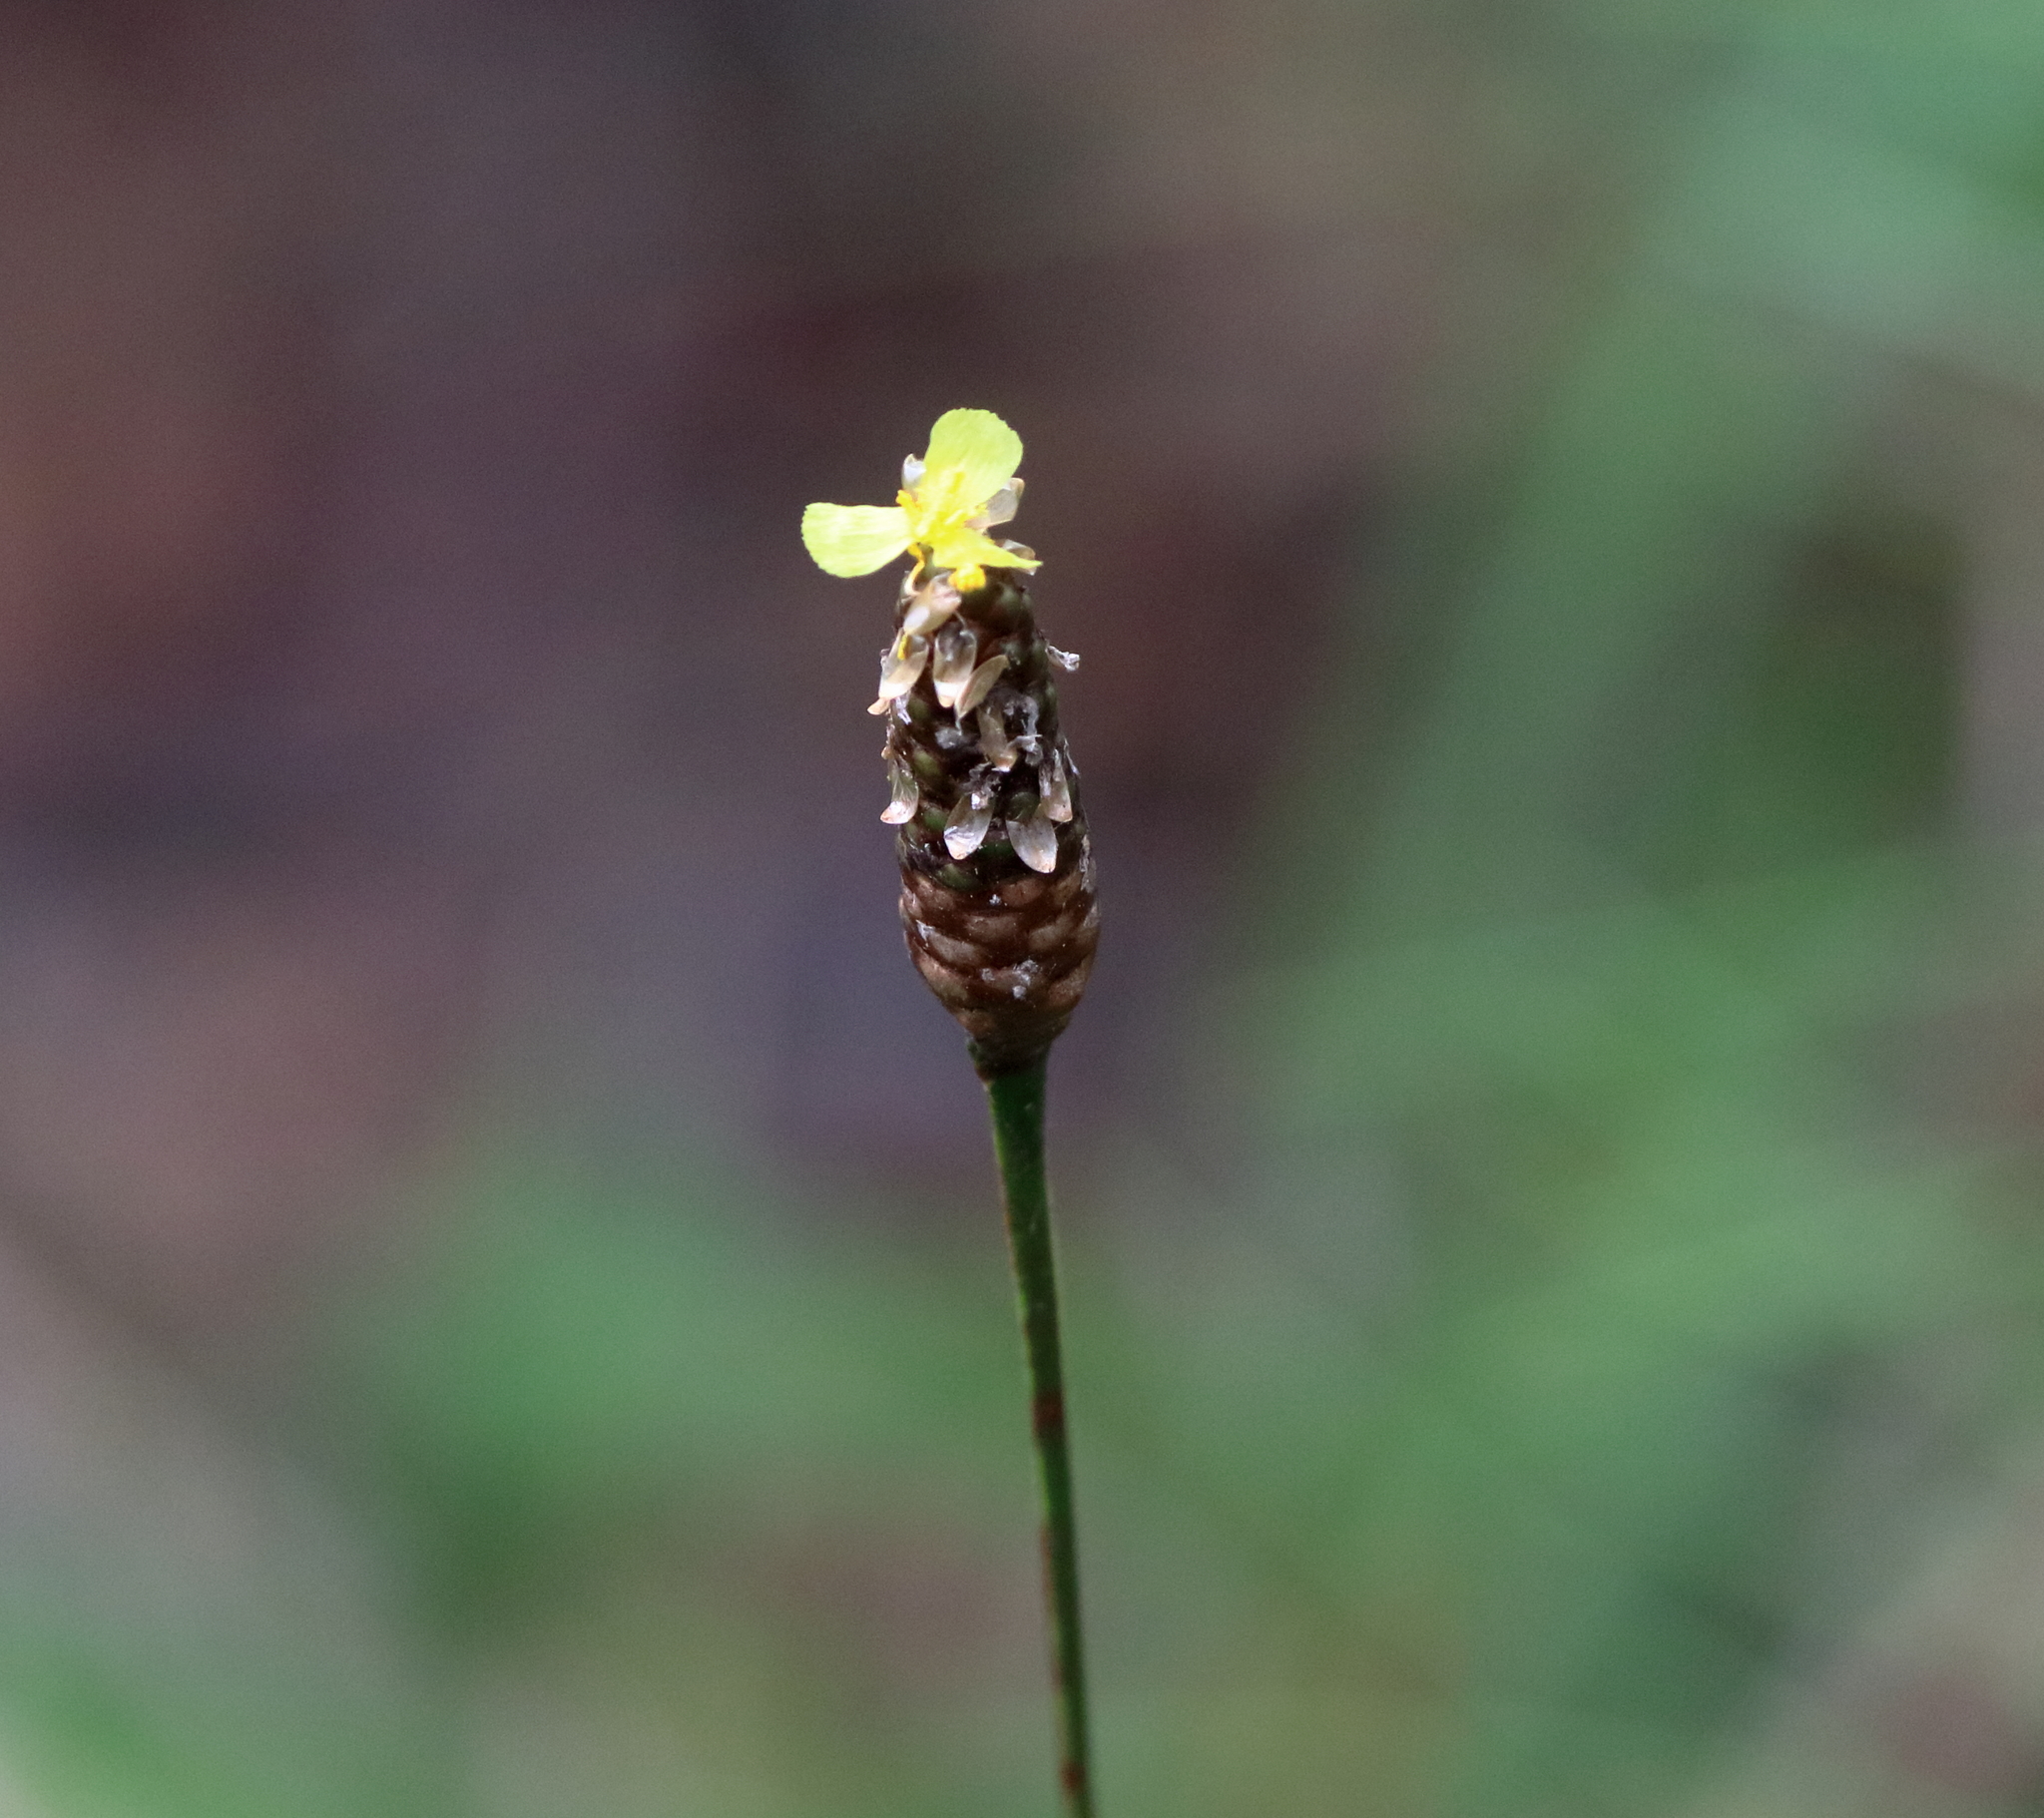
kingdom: Plantae
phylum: Tracheophyta
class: Liliopsida
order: Poales
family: Xyridaceae
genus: Xyris
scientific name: Xyris stricta
